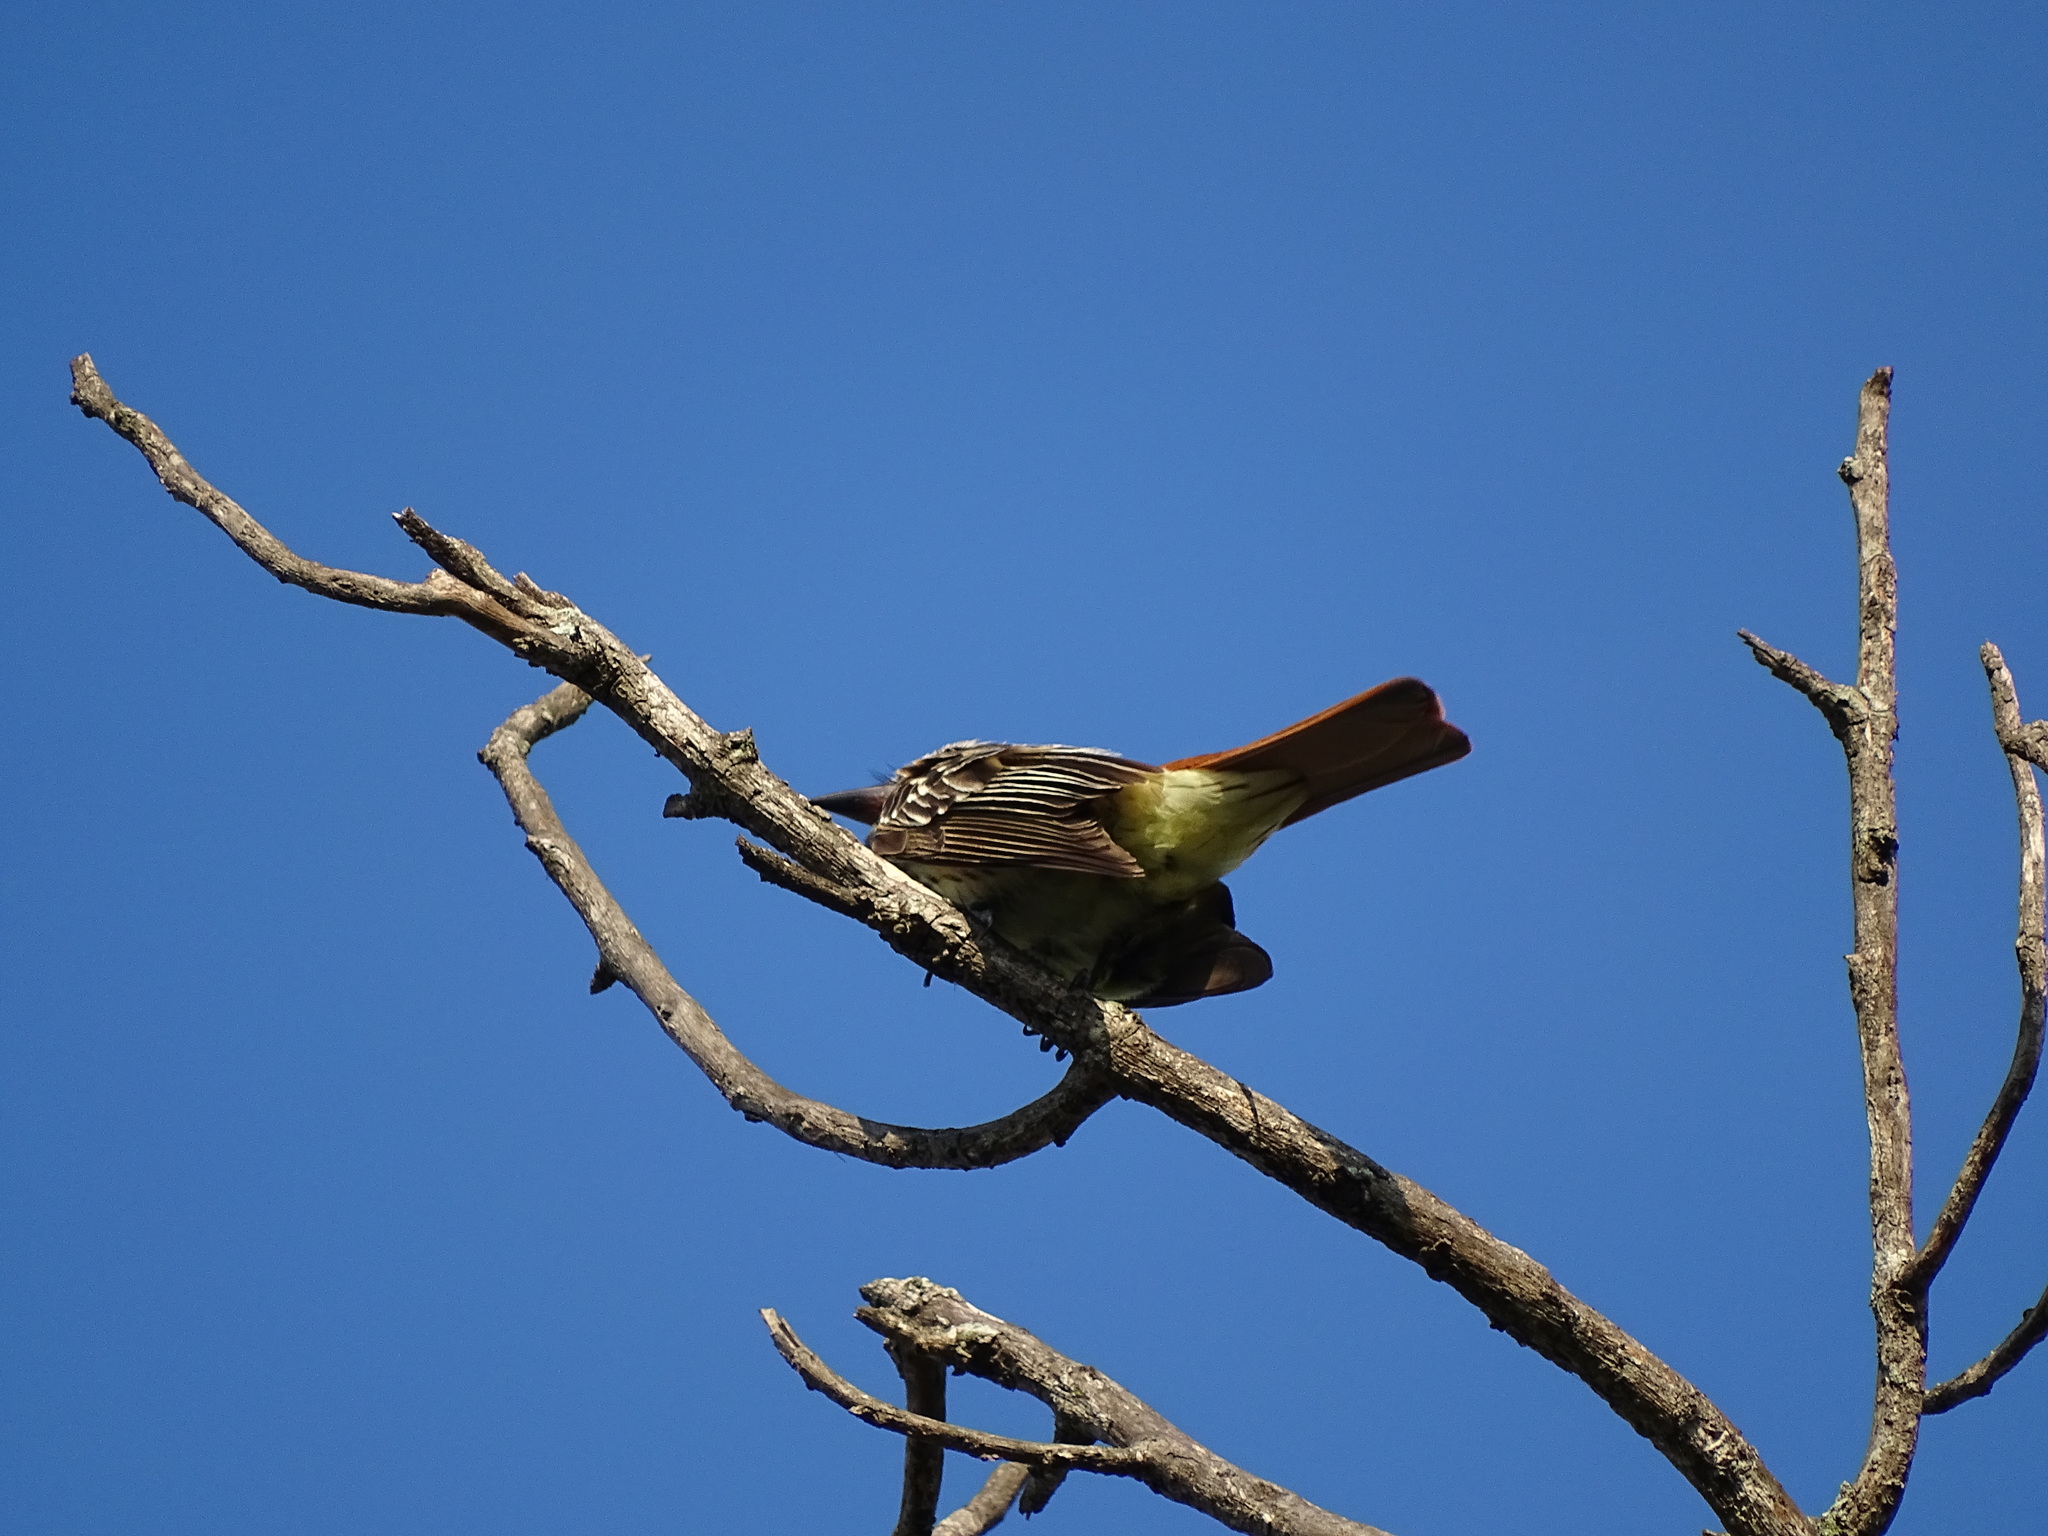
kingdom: Animalia
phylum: Chordata
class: Aves
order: Passeriformes
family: Tyrannidae
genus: Myiodynastes
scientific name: Myiodynastes luteiventris
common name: Sulphur-bellied flycatcher
